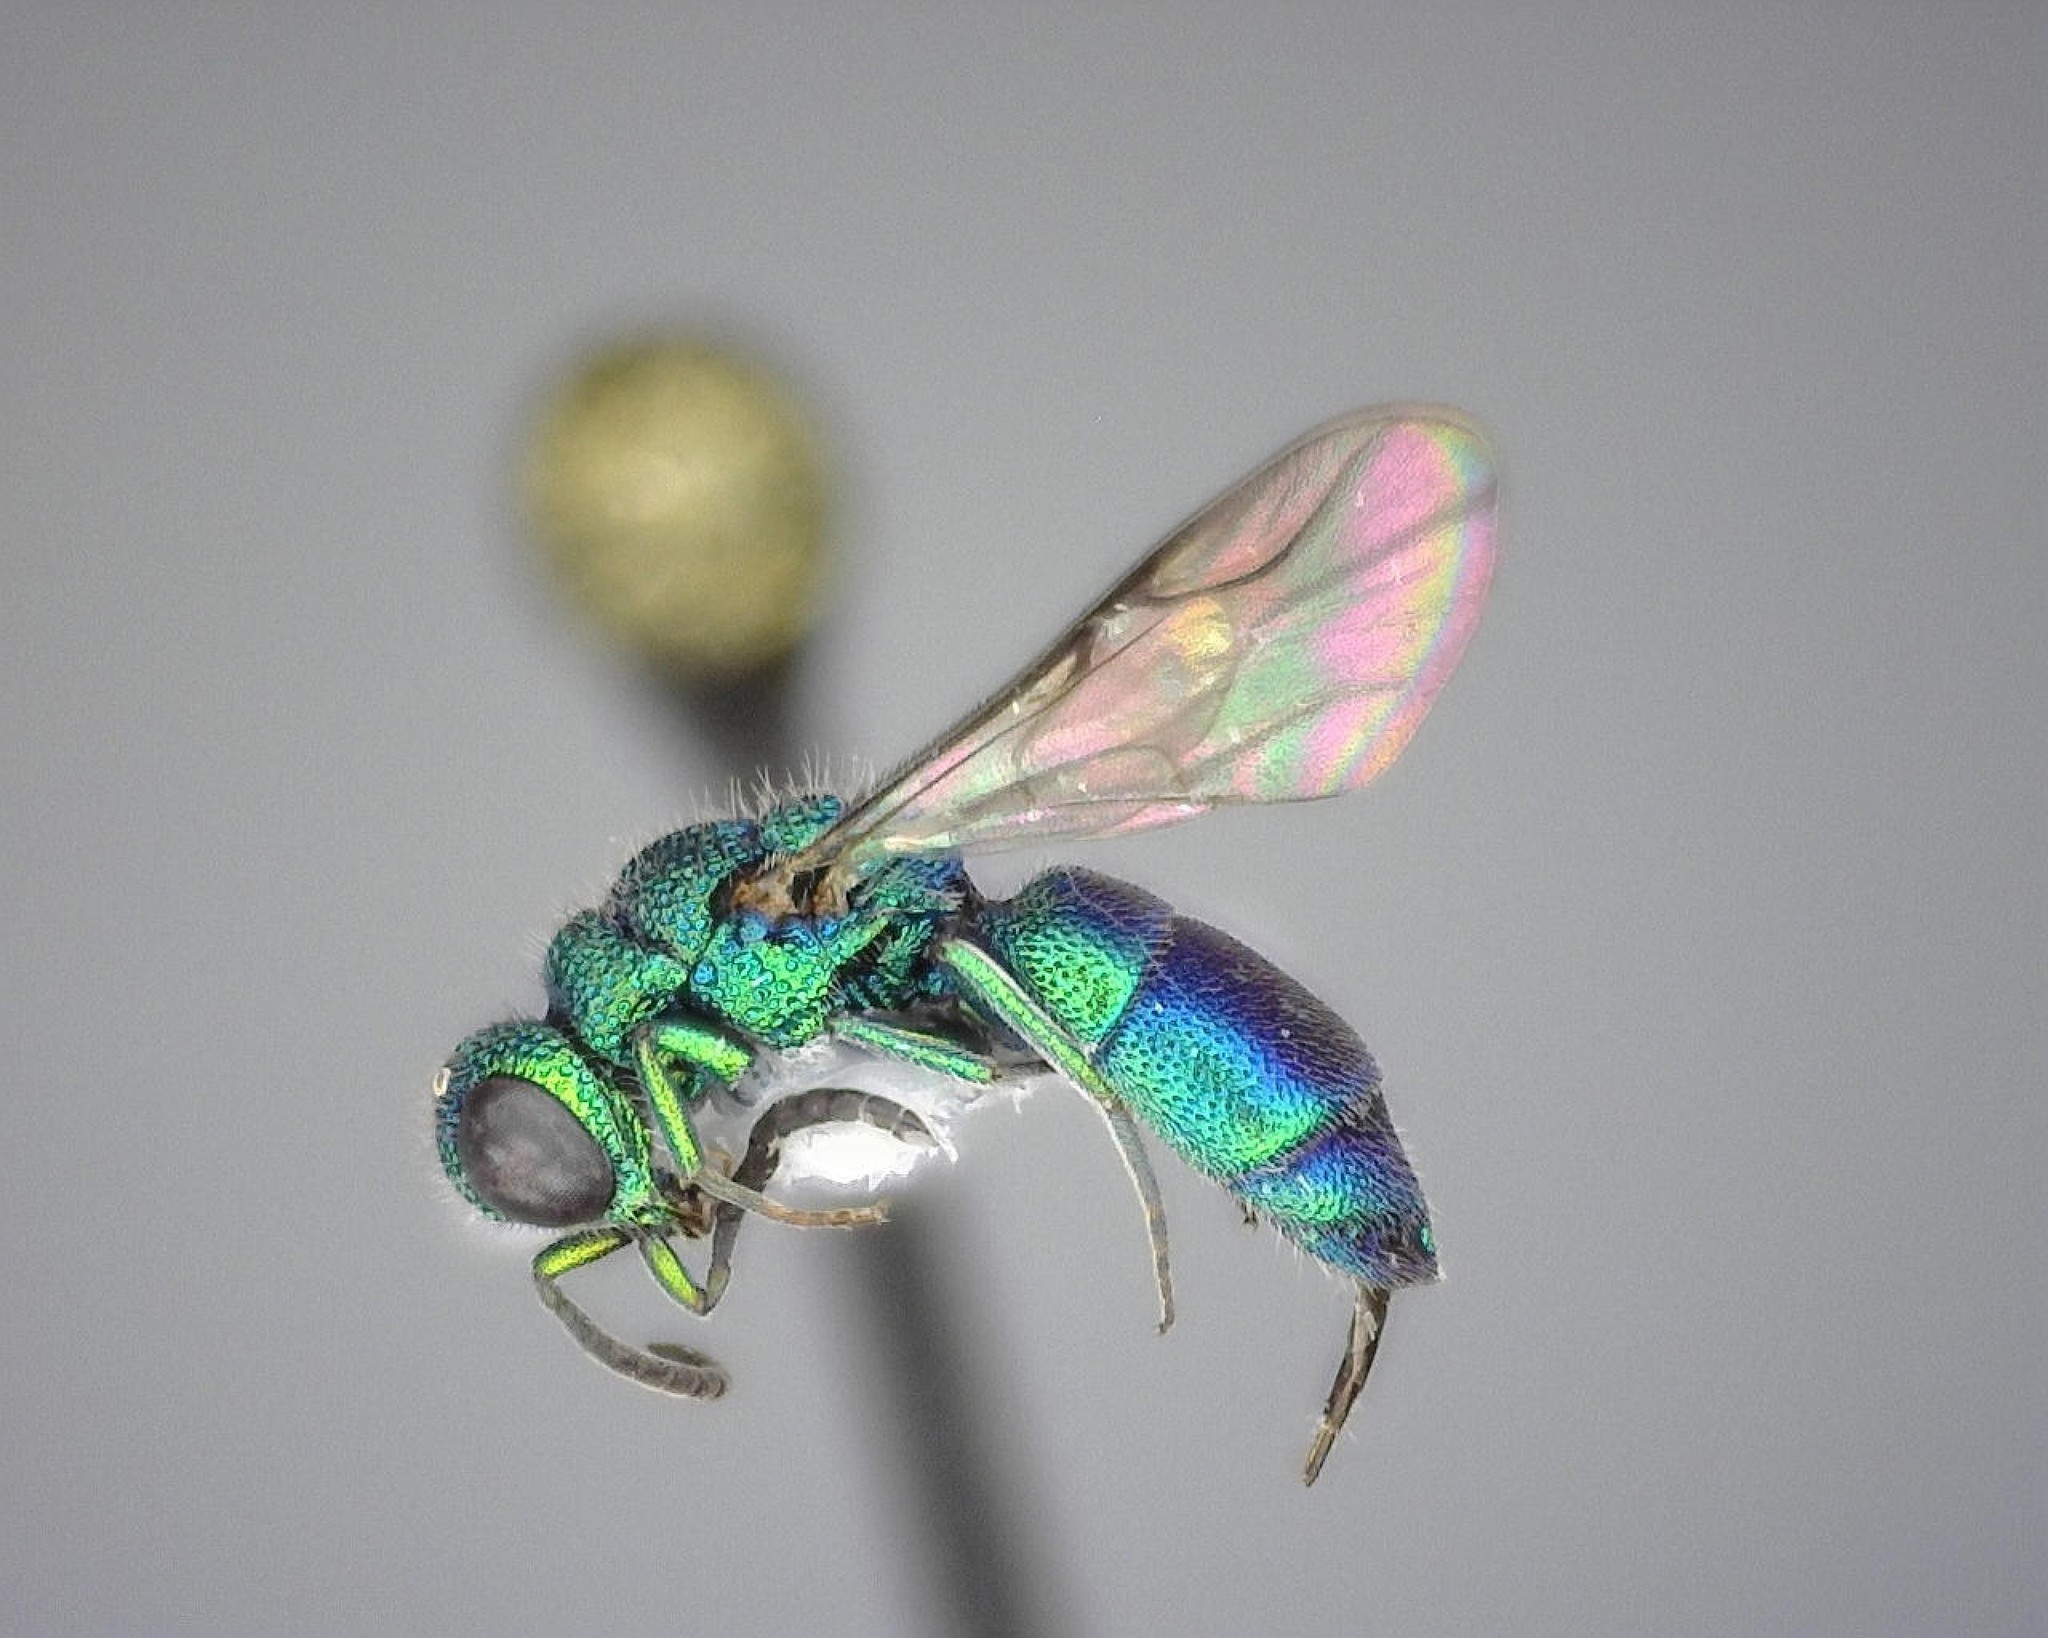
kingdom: Animalia
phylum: Arthropoda
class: Insecta
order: Hymenoptera
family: Chrysididae
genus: Caenochrysis
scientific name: Caenochrysis doriae
